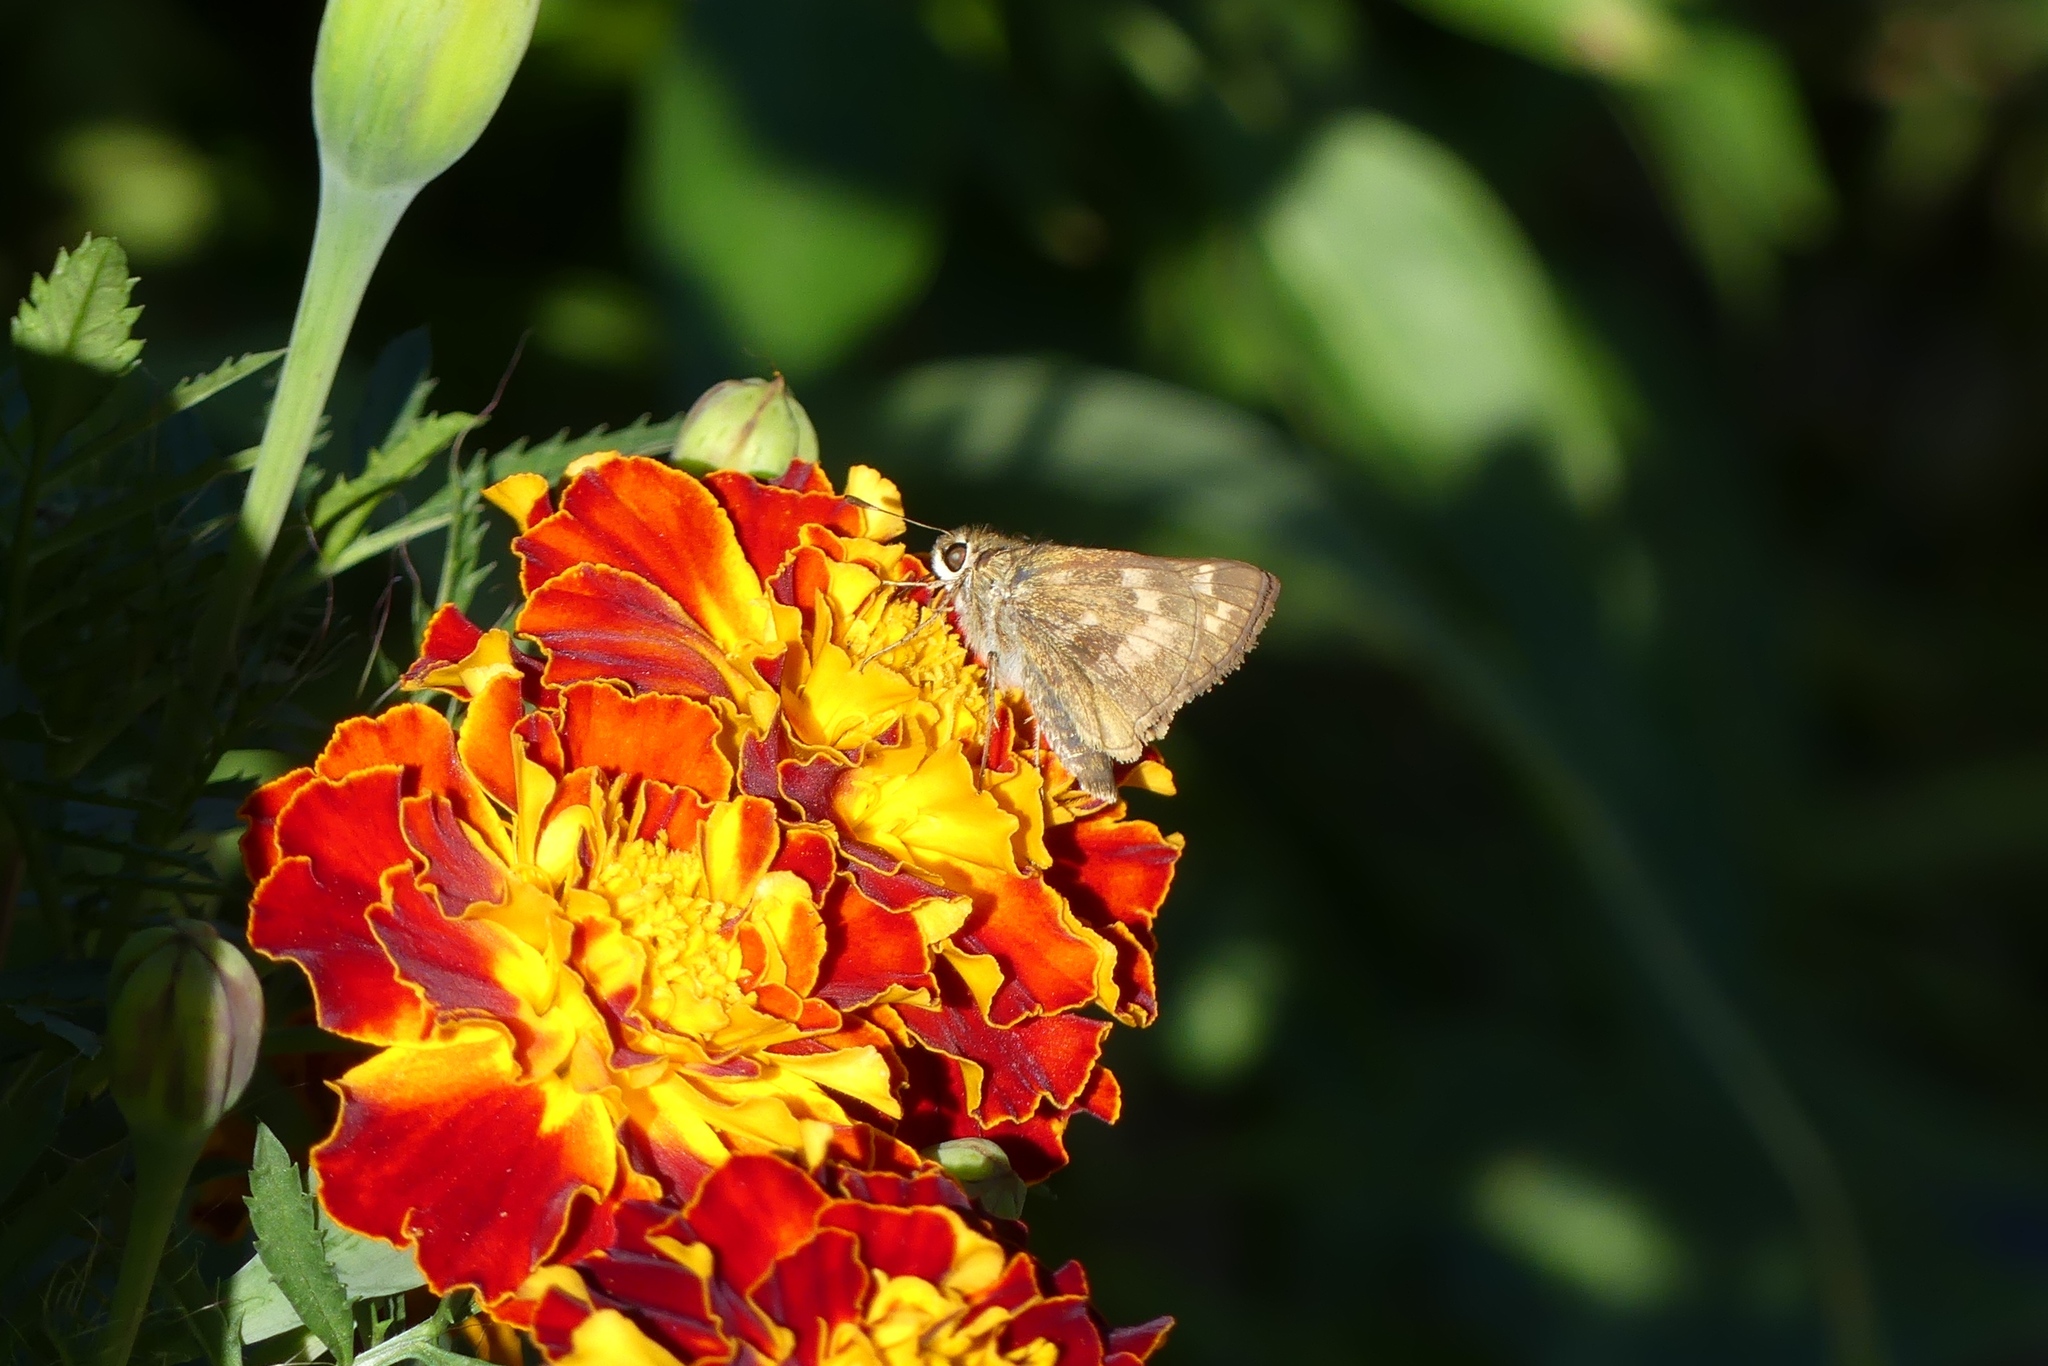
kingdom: Animalia
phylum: Arthropoda
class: Insecta
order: Lepidoptera
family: Hesperiidae
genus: Atalopedes
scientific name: Atalopedes
